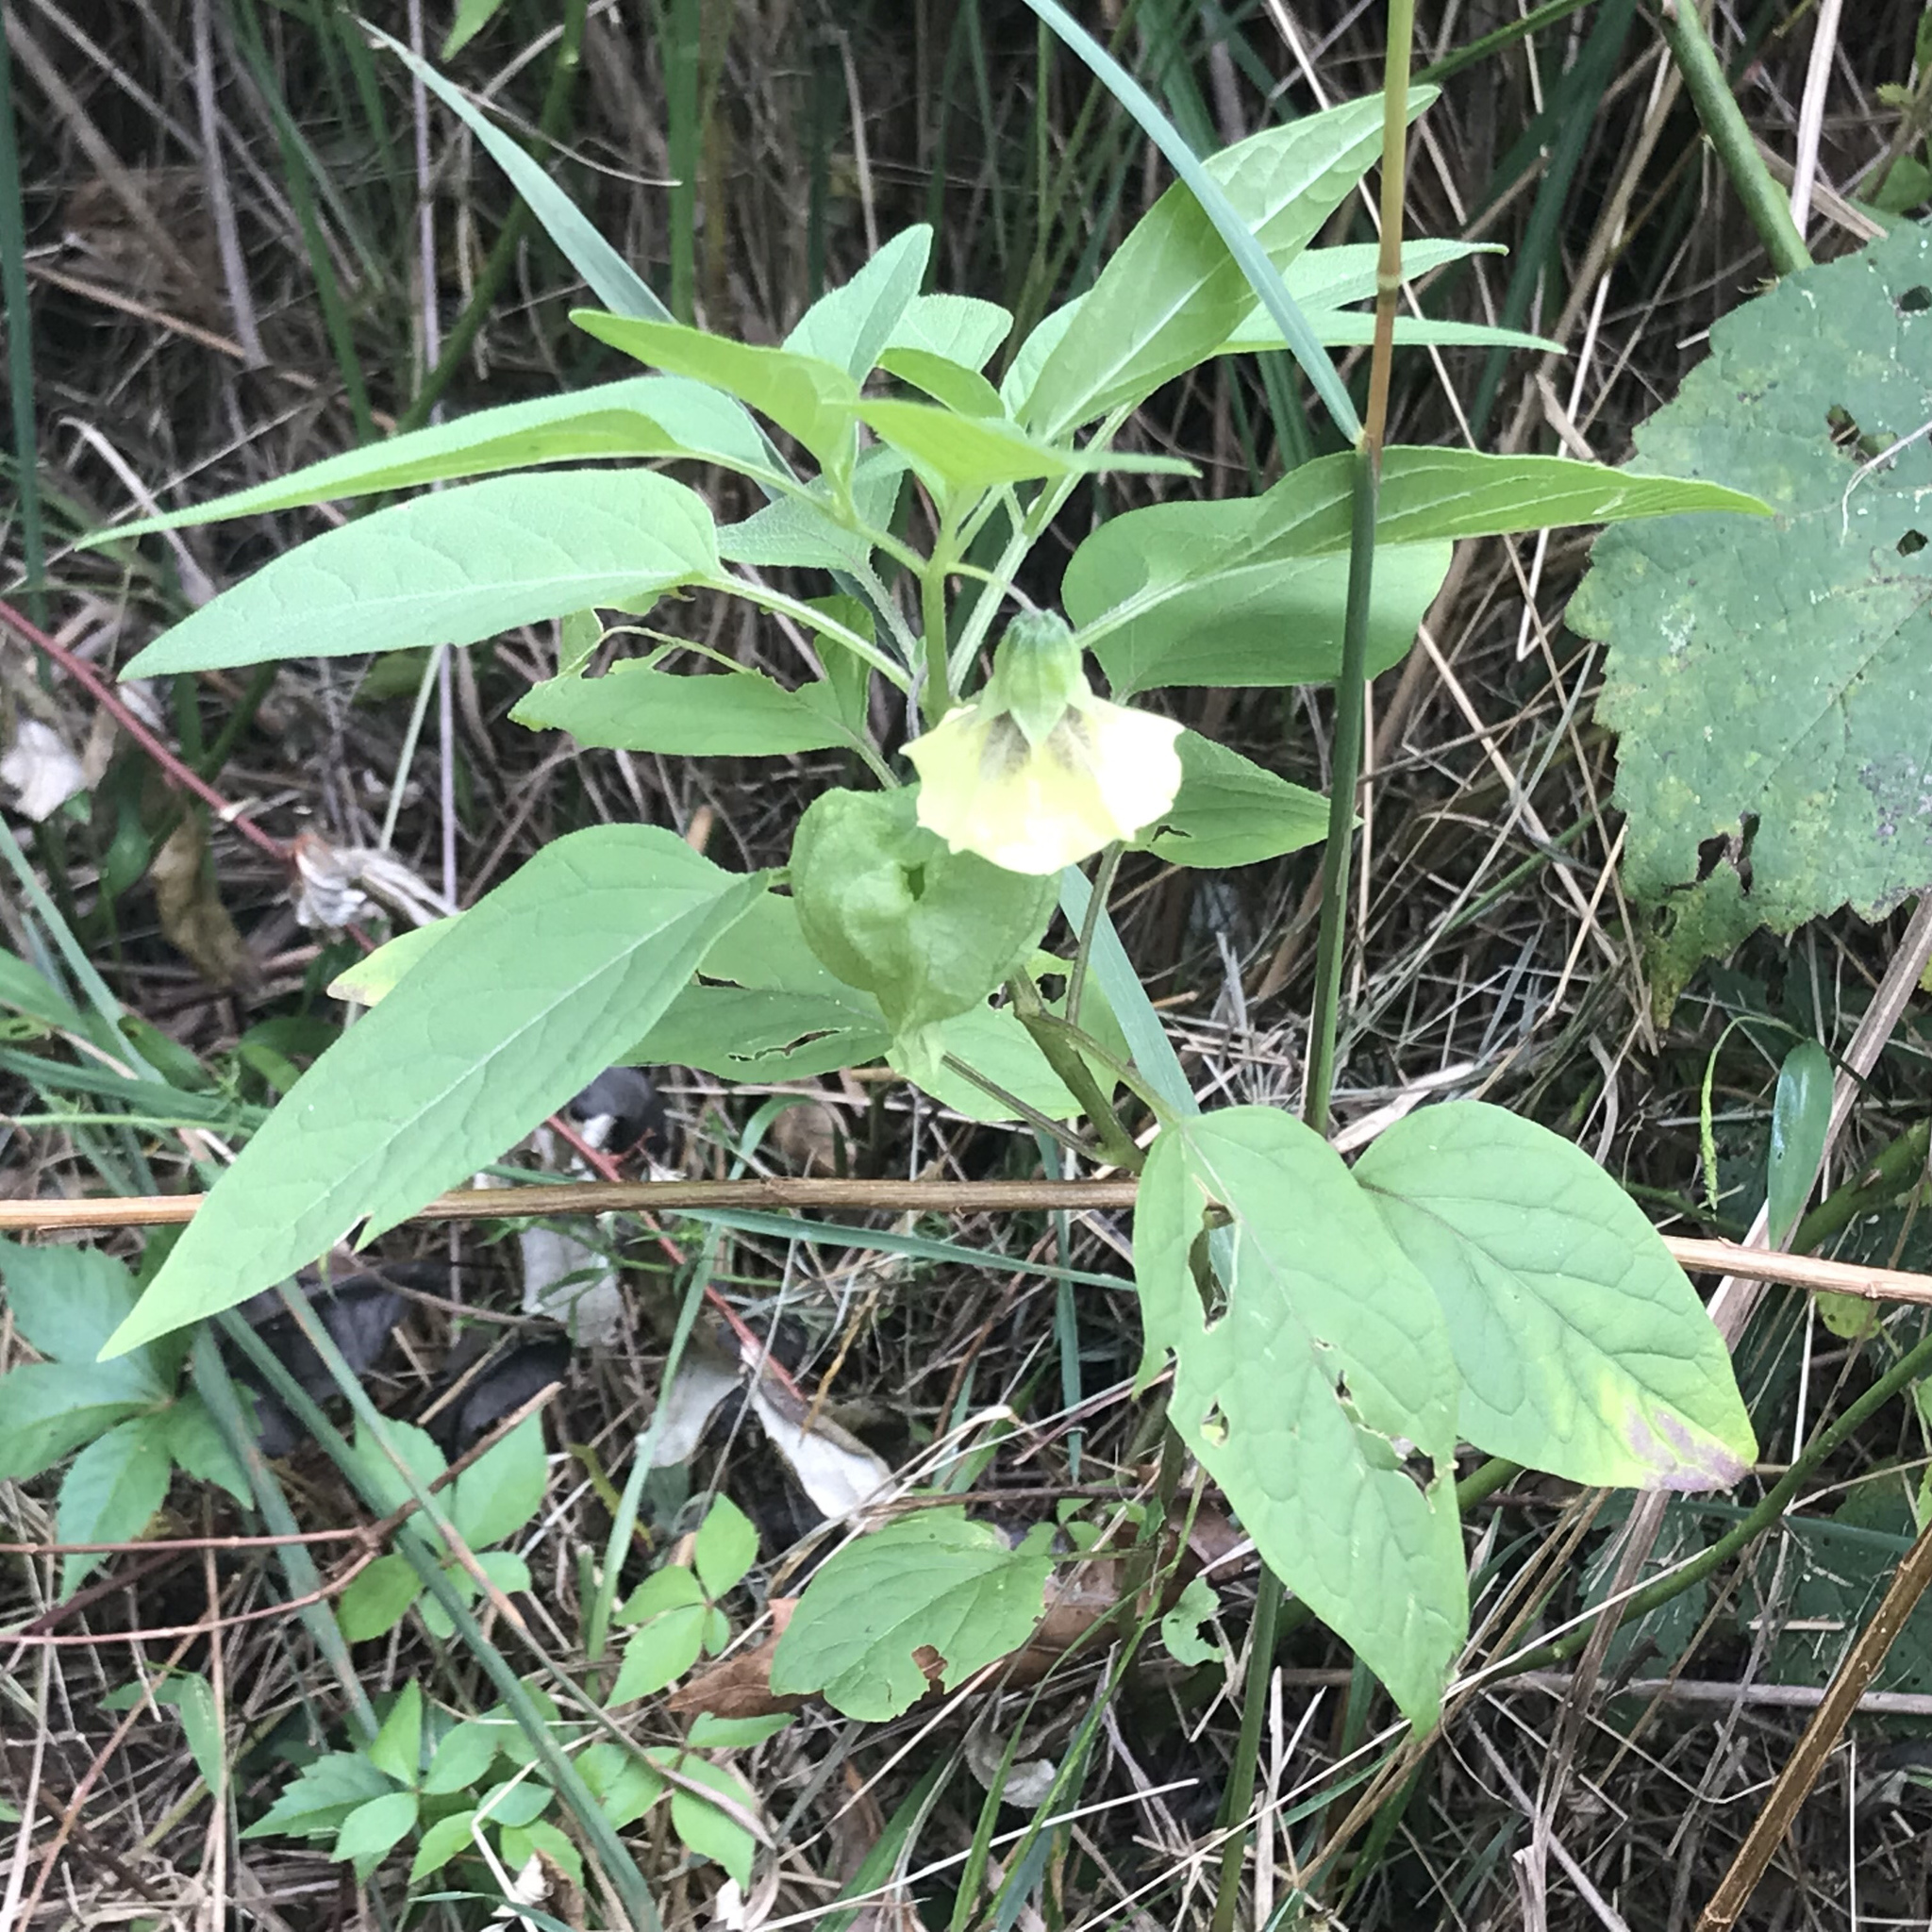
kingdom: Plantae
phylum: Tracheophyta
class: Magnoliopsida
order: Solanales
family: Solanaceae
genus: Physalis
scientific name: Physalis longifolia
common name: Common ground-cherry
